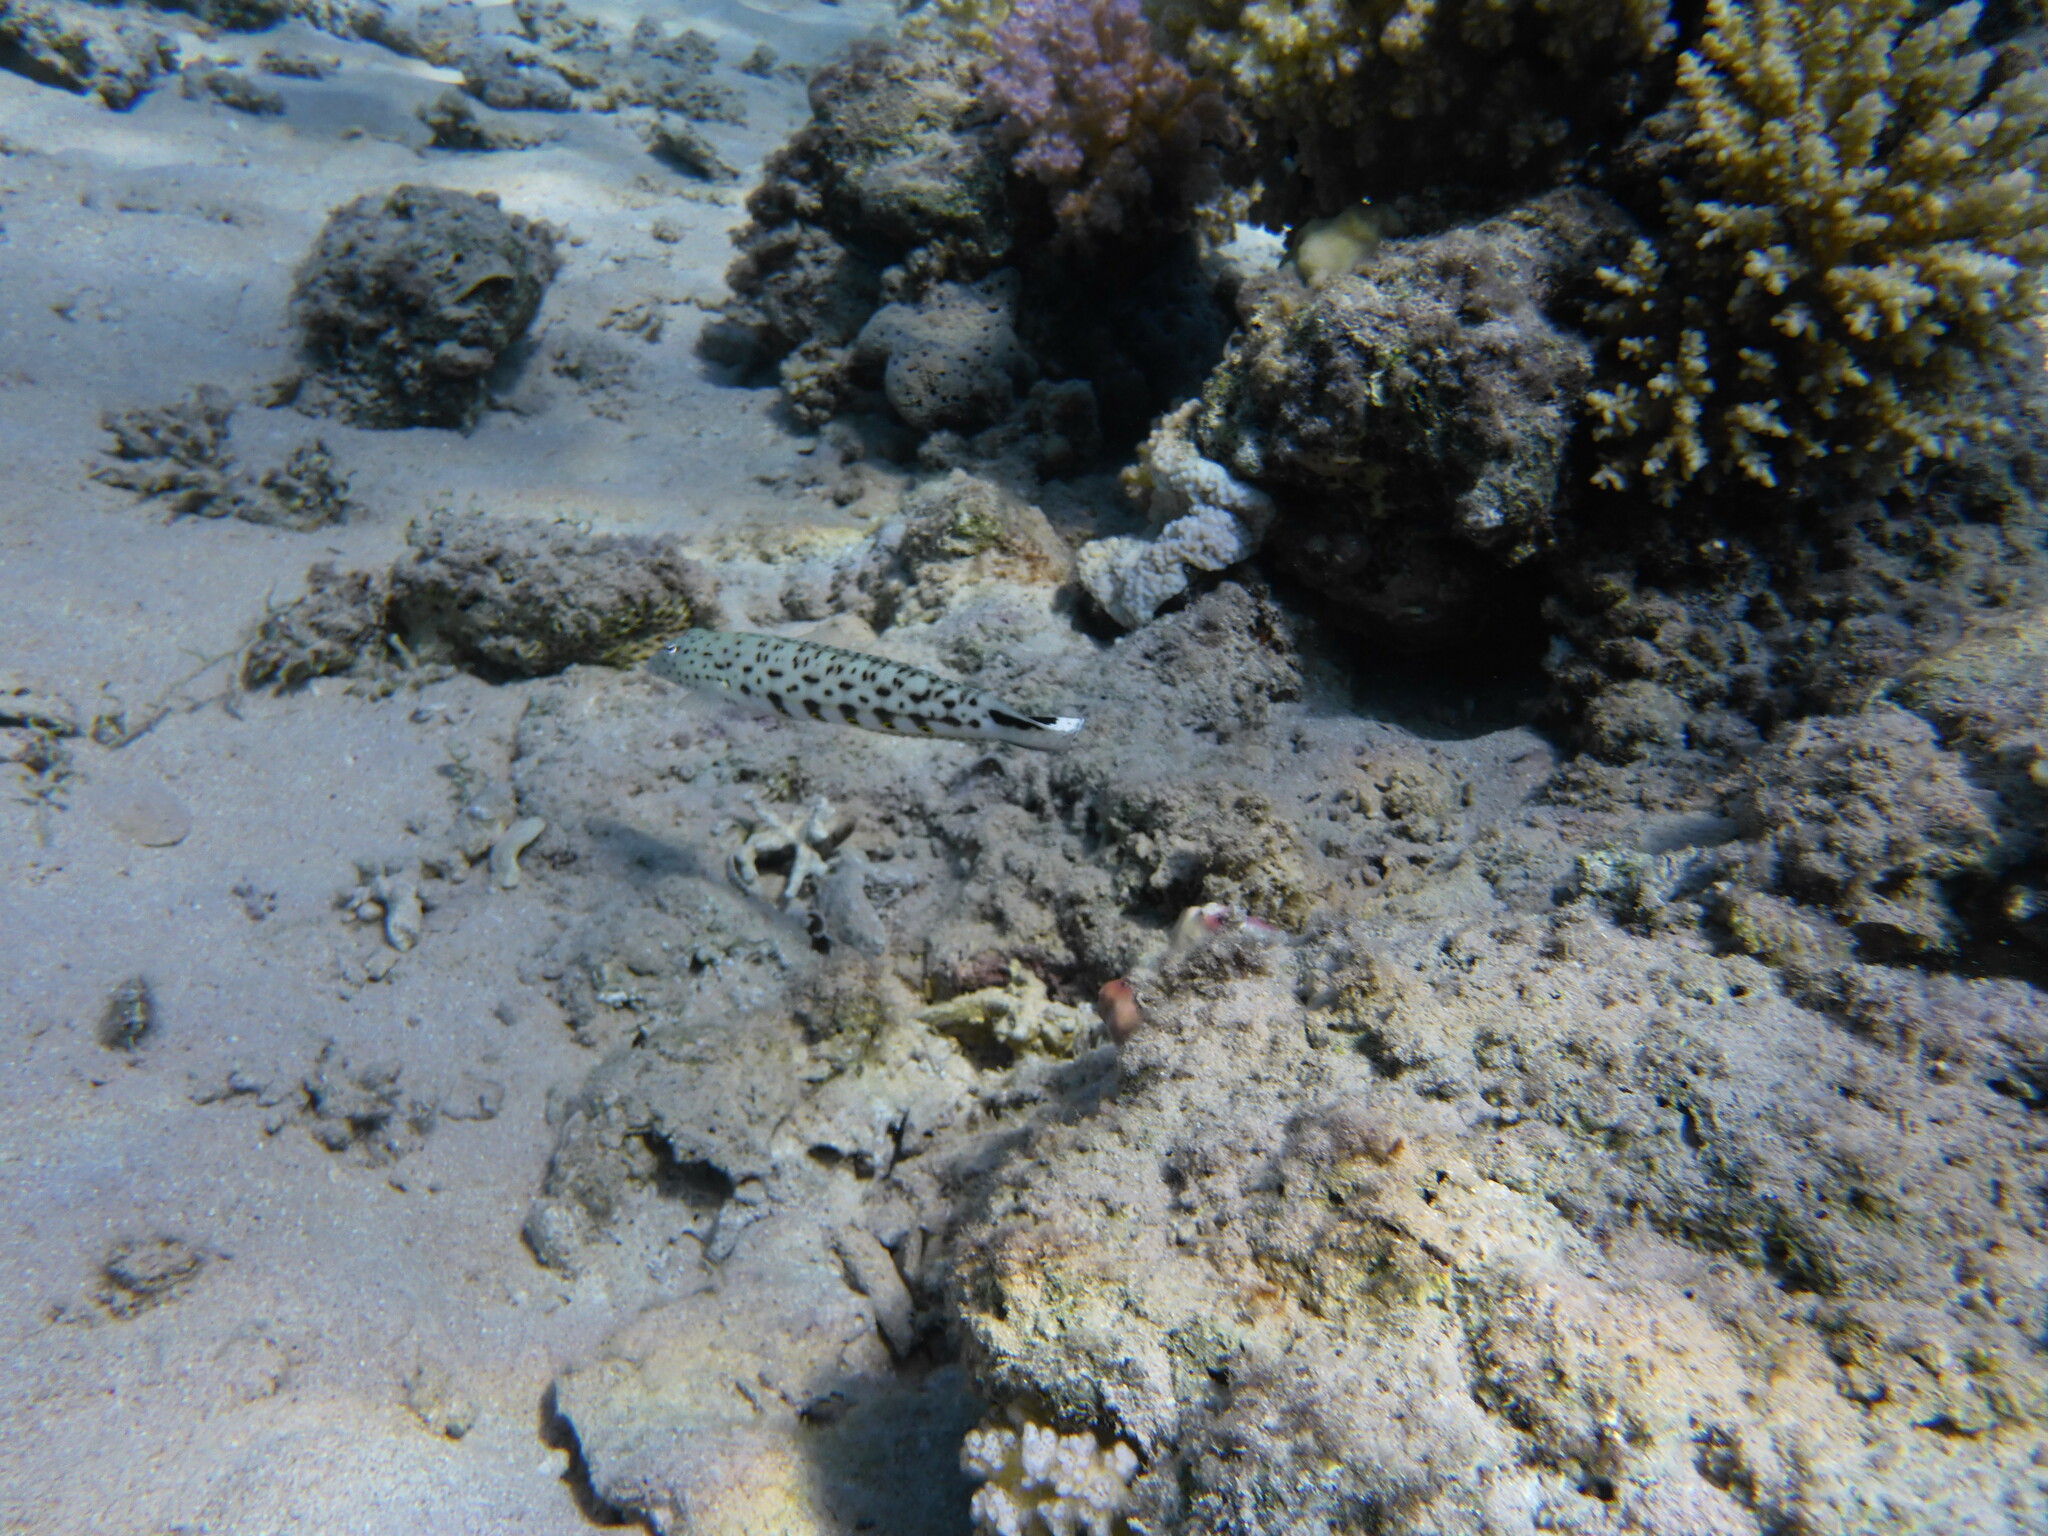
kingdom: Animalia
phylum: Chordata
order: Perciformes
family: Pinguipedidae
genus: Parapercis
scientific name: Parapercis hexophtalma
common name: Speckled sandperch
